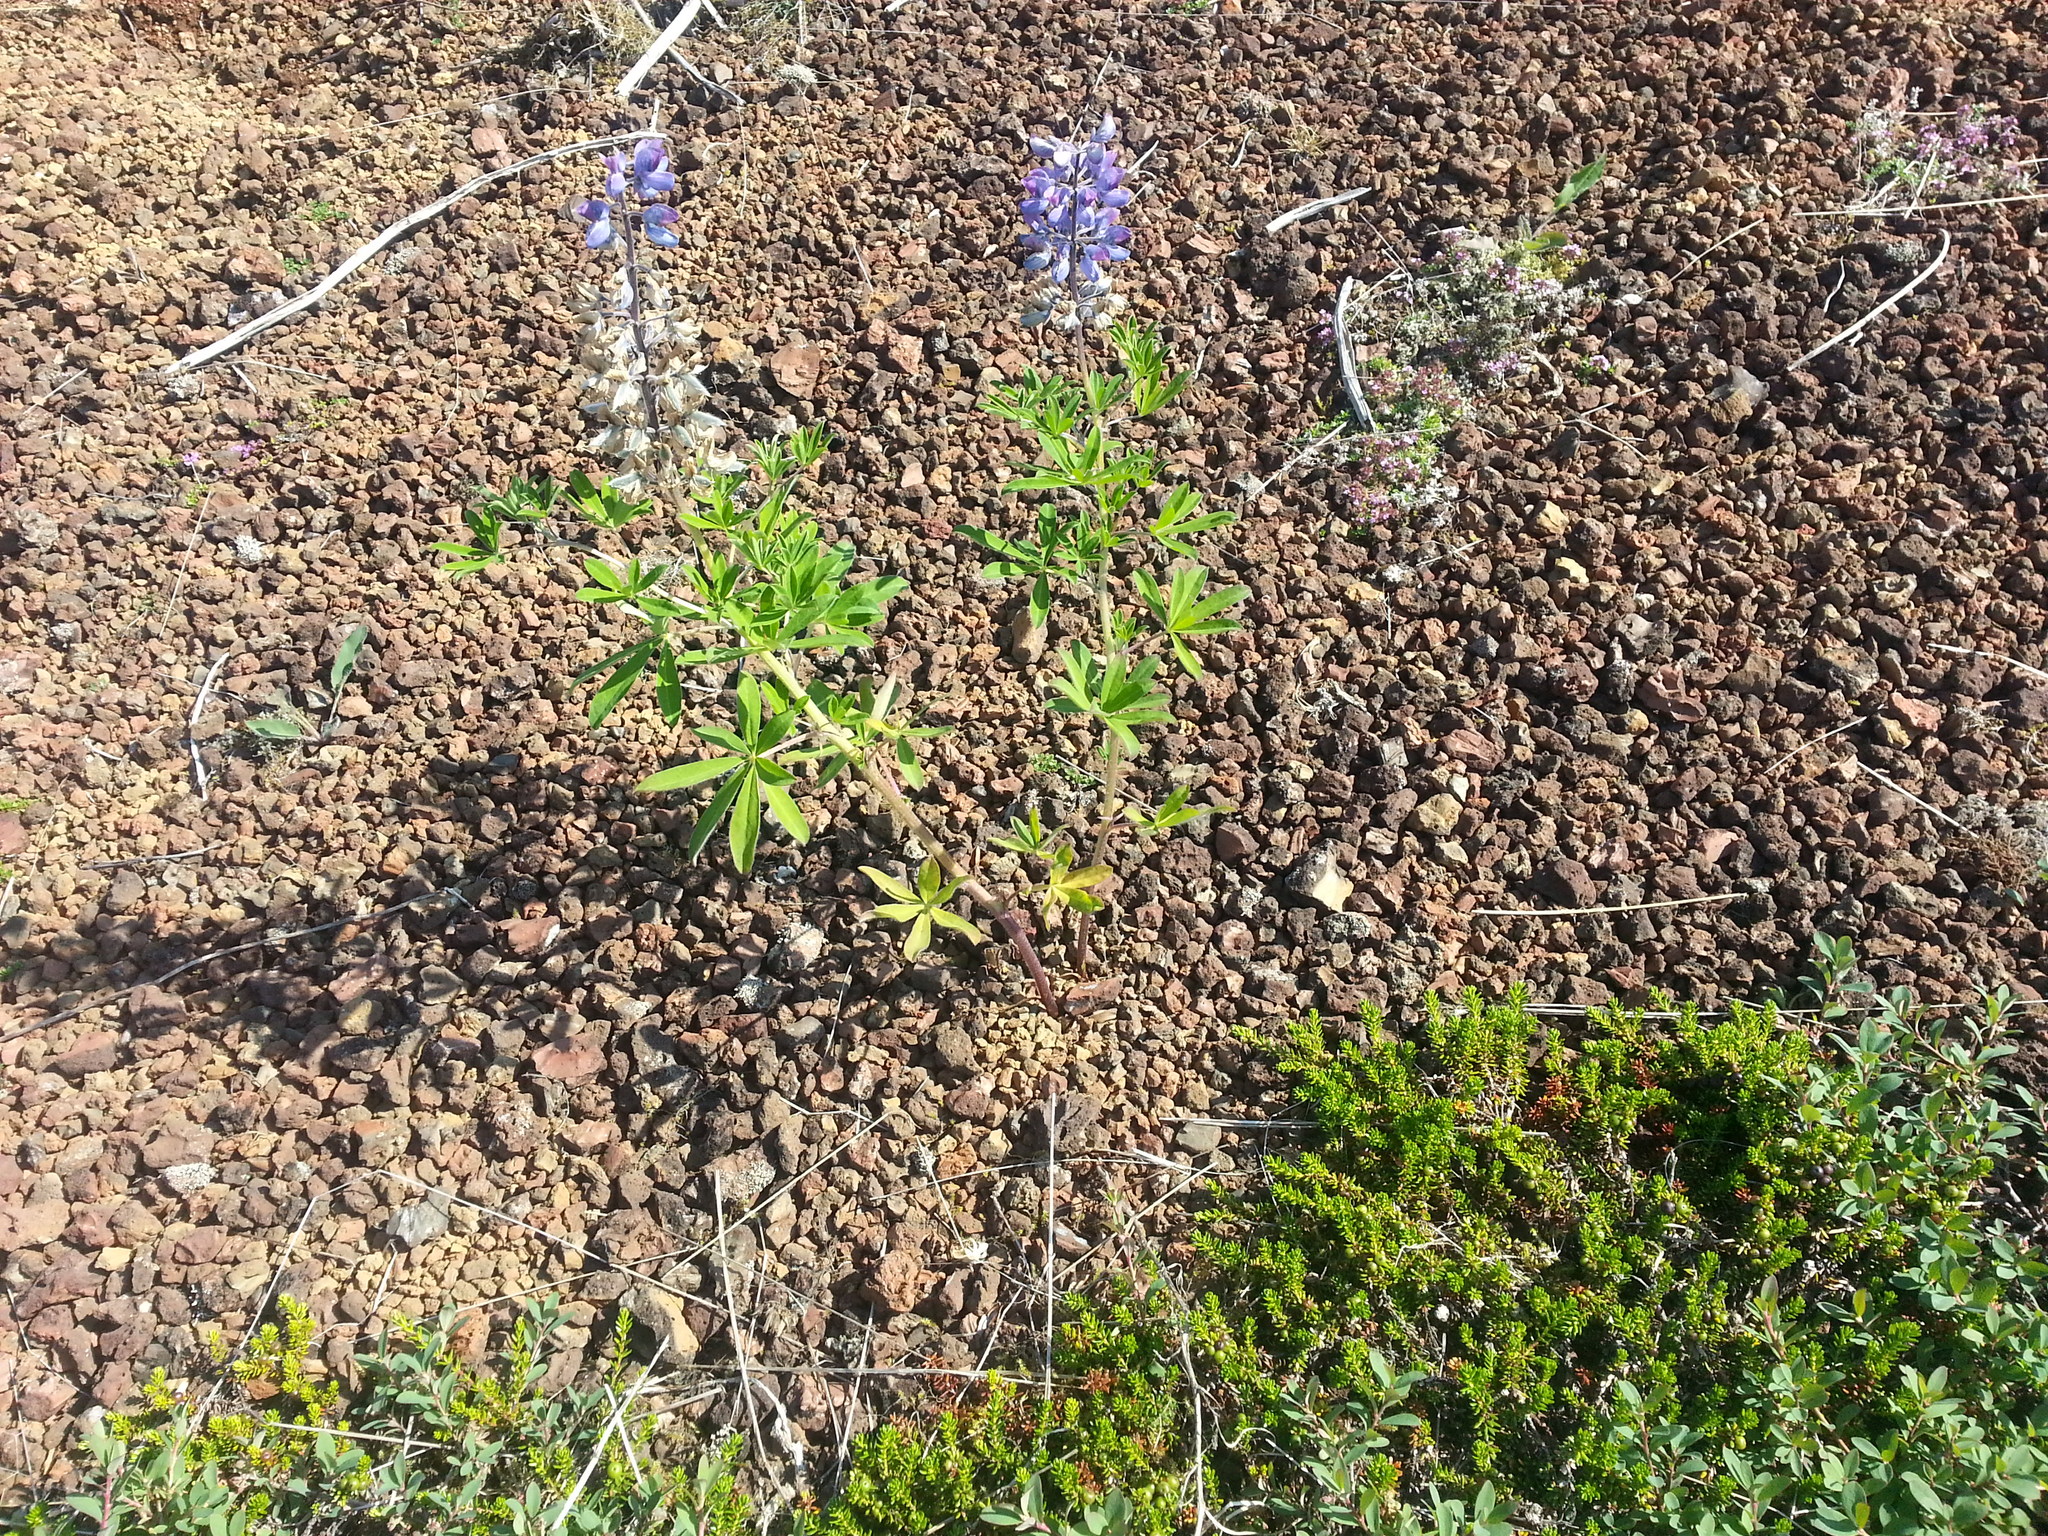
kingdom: Plantae
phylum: Tracheophyta
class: Magnoliopsida
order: Fabales
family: Fabaceae
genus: Lupinus
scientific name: Lupinus nootkatensis
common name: Nootka lupine
